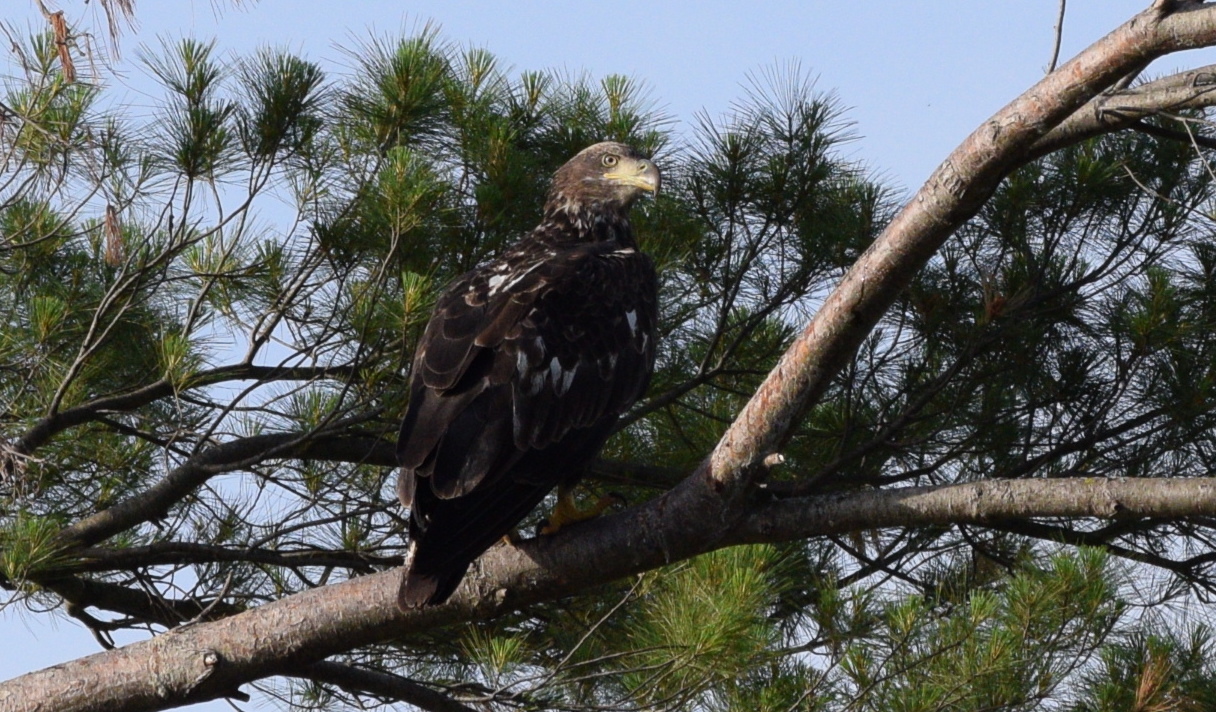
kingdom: Animalia
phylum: Chordata
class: Aves
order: Accipitriformes
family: Accipitridae
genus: Haliaeetus
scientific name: Haliaeetus leucocephalus
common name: Bald eagle
